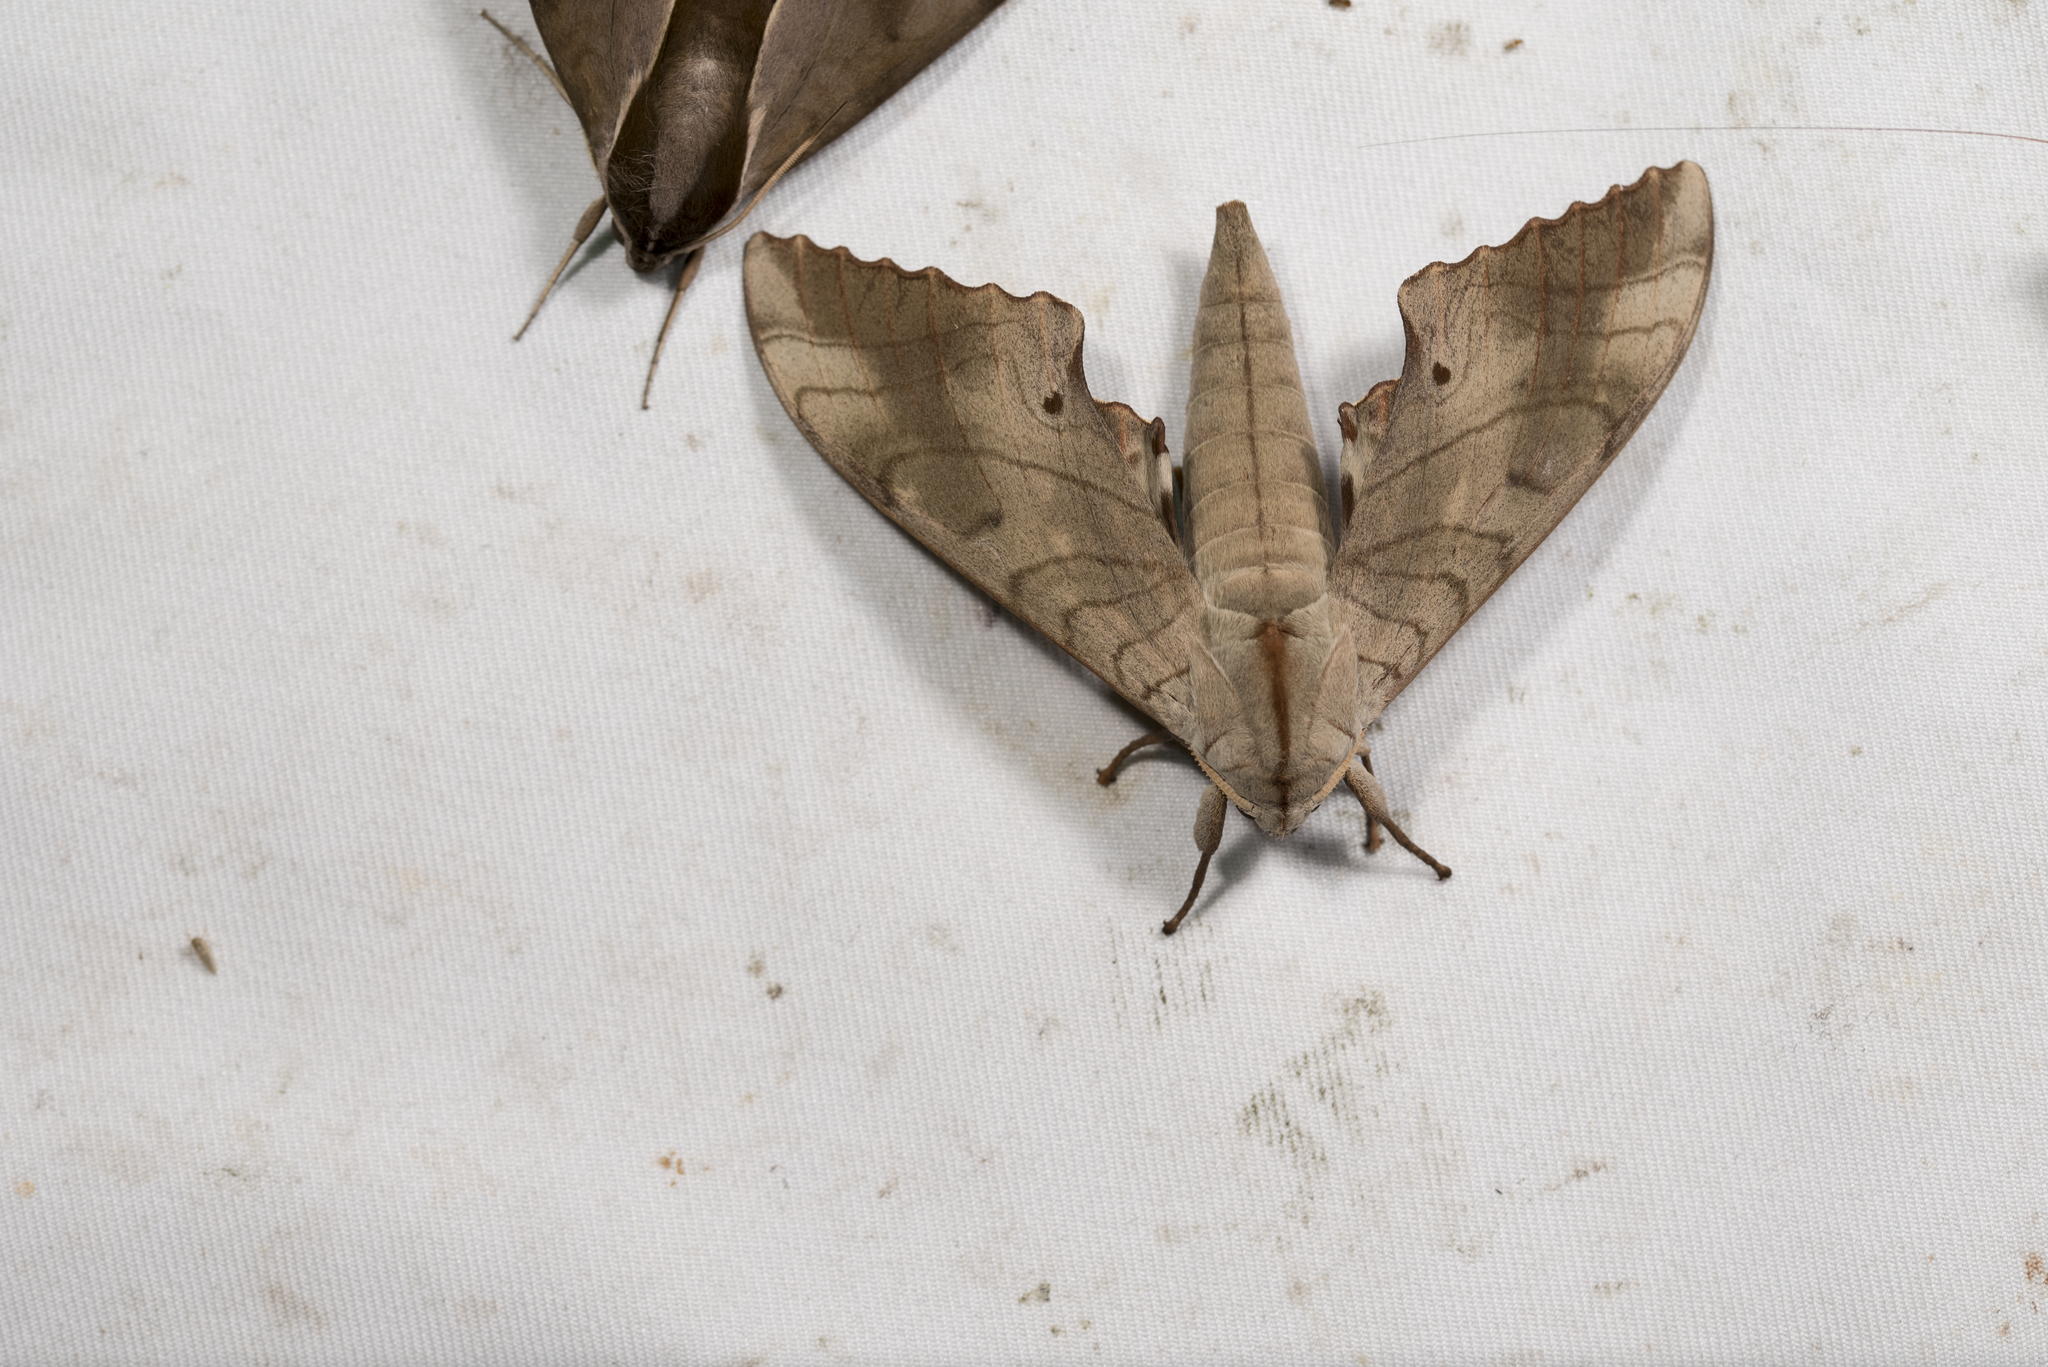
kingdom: Animalia
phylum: Arthropoda
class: Insecta
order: Lepidoptera
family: Sphingidae
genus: Marumba
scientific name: Marumba sperchius
